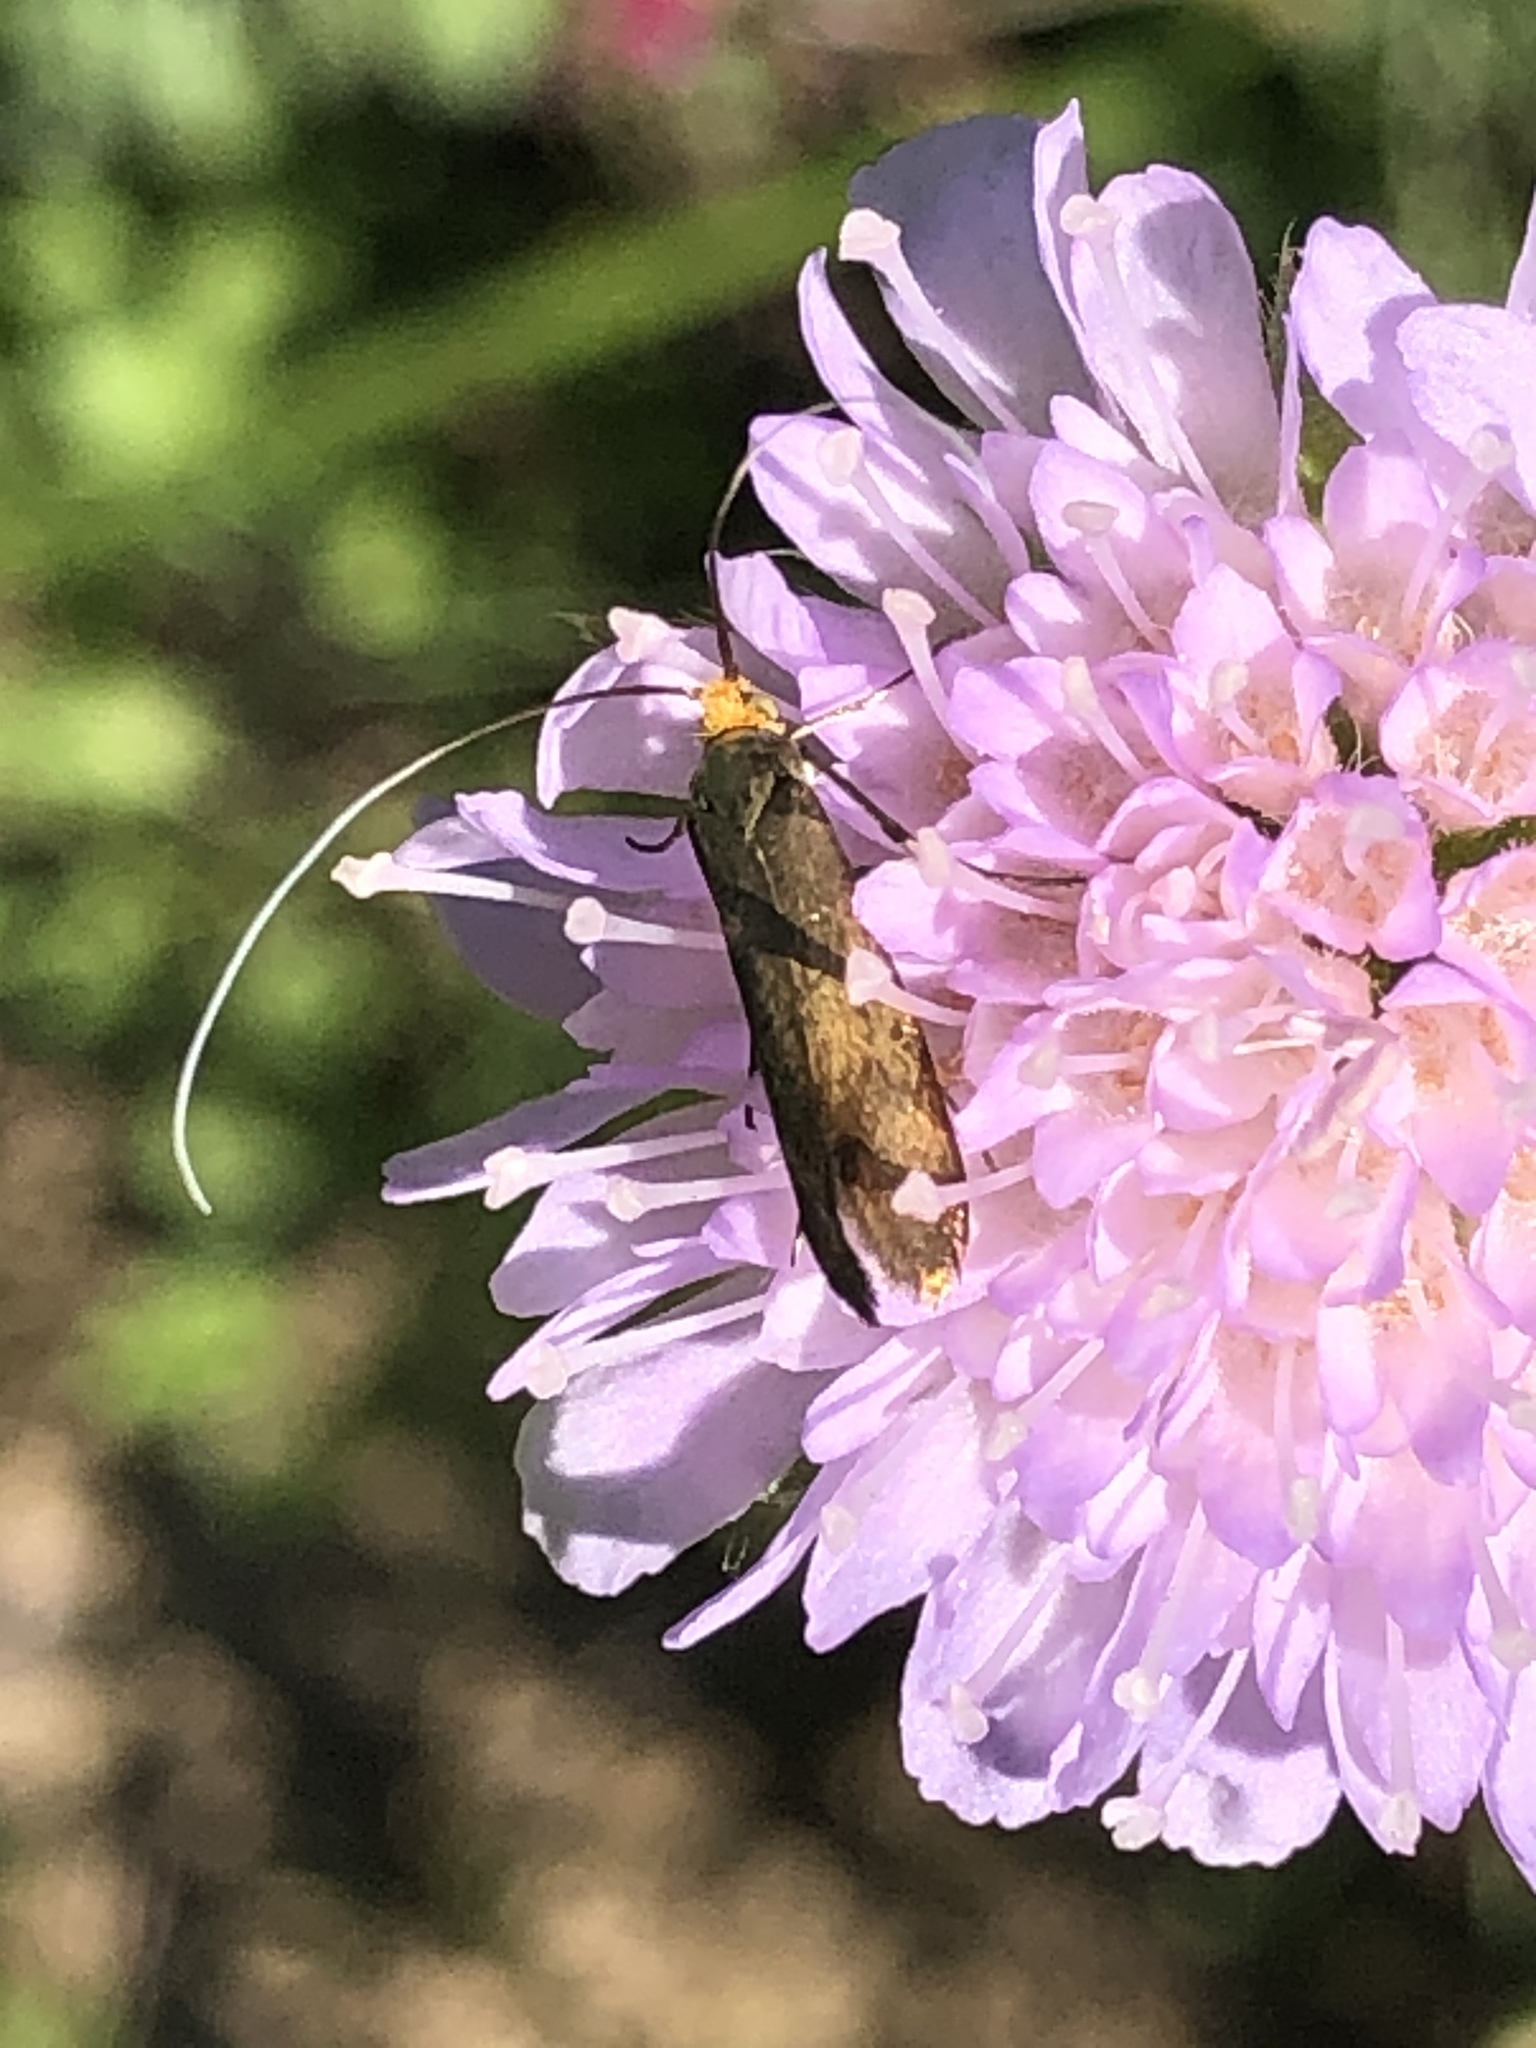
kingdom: Animalia
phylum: Arthropoda
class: Insecta
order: Lepidoptera
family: Adelidae
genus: Nemophora
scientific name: Nemophora metallica
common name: Brassy long-horn
